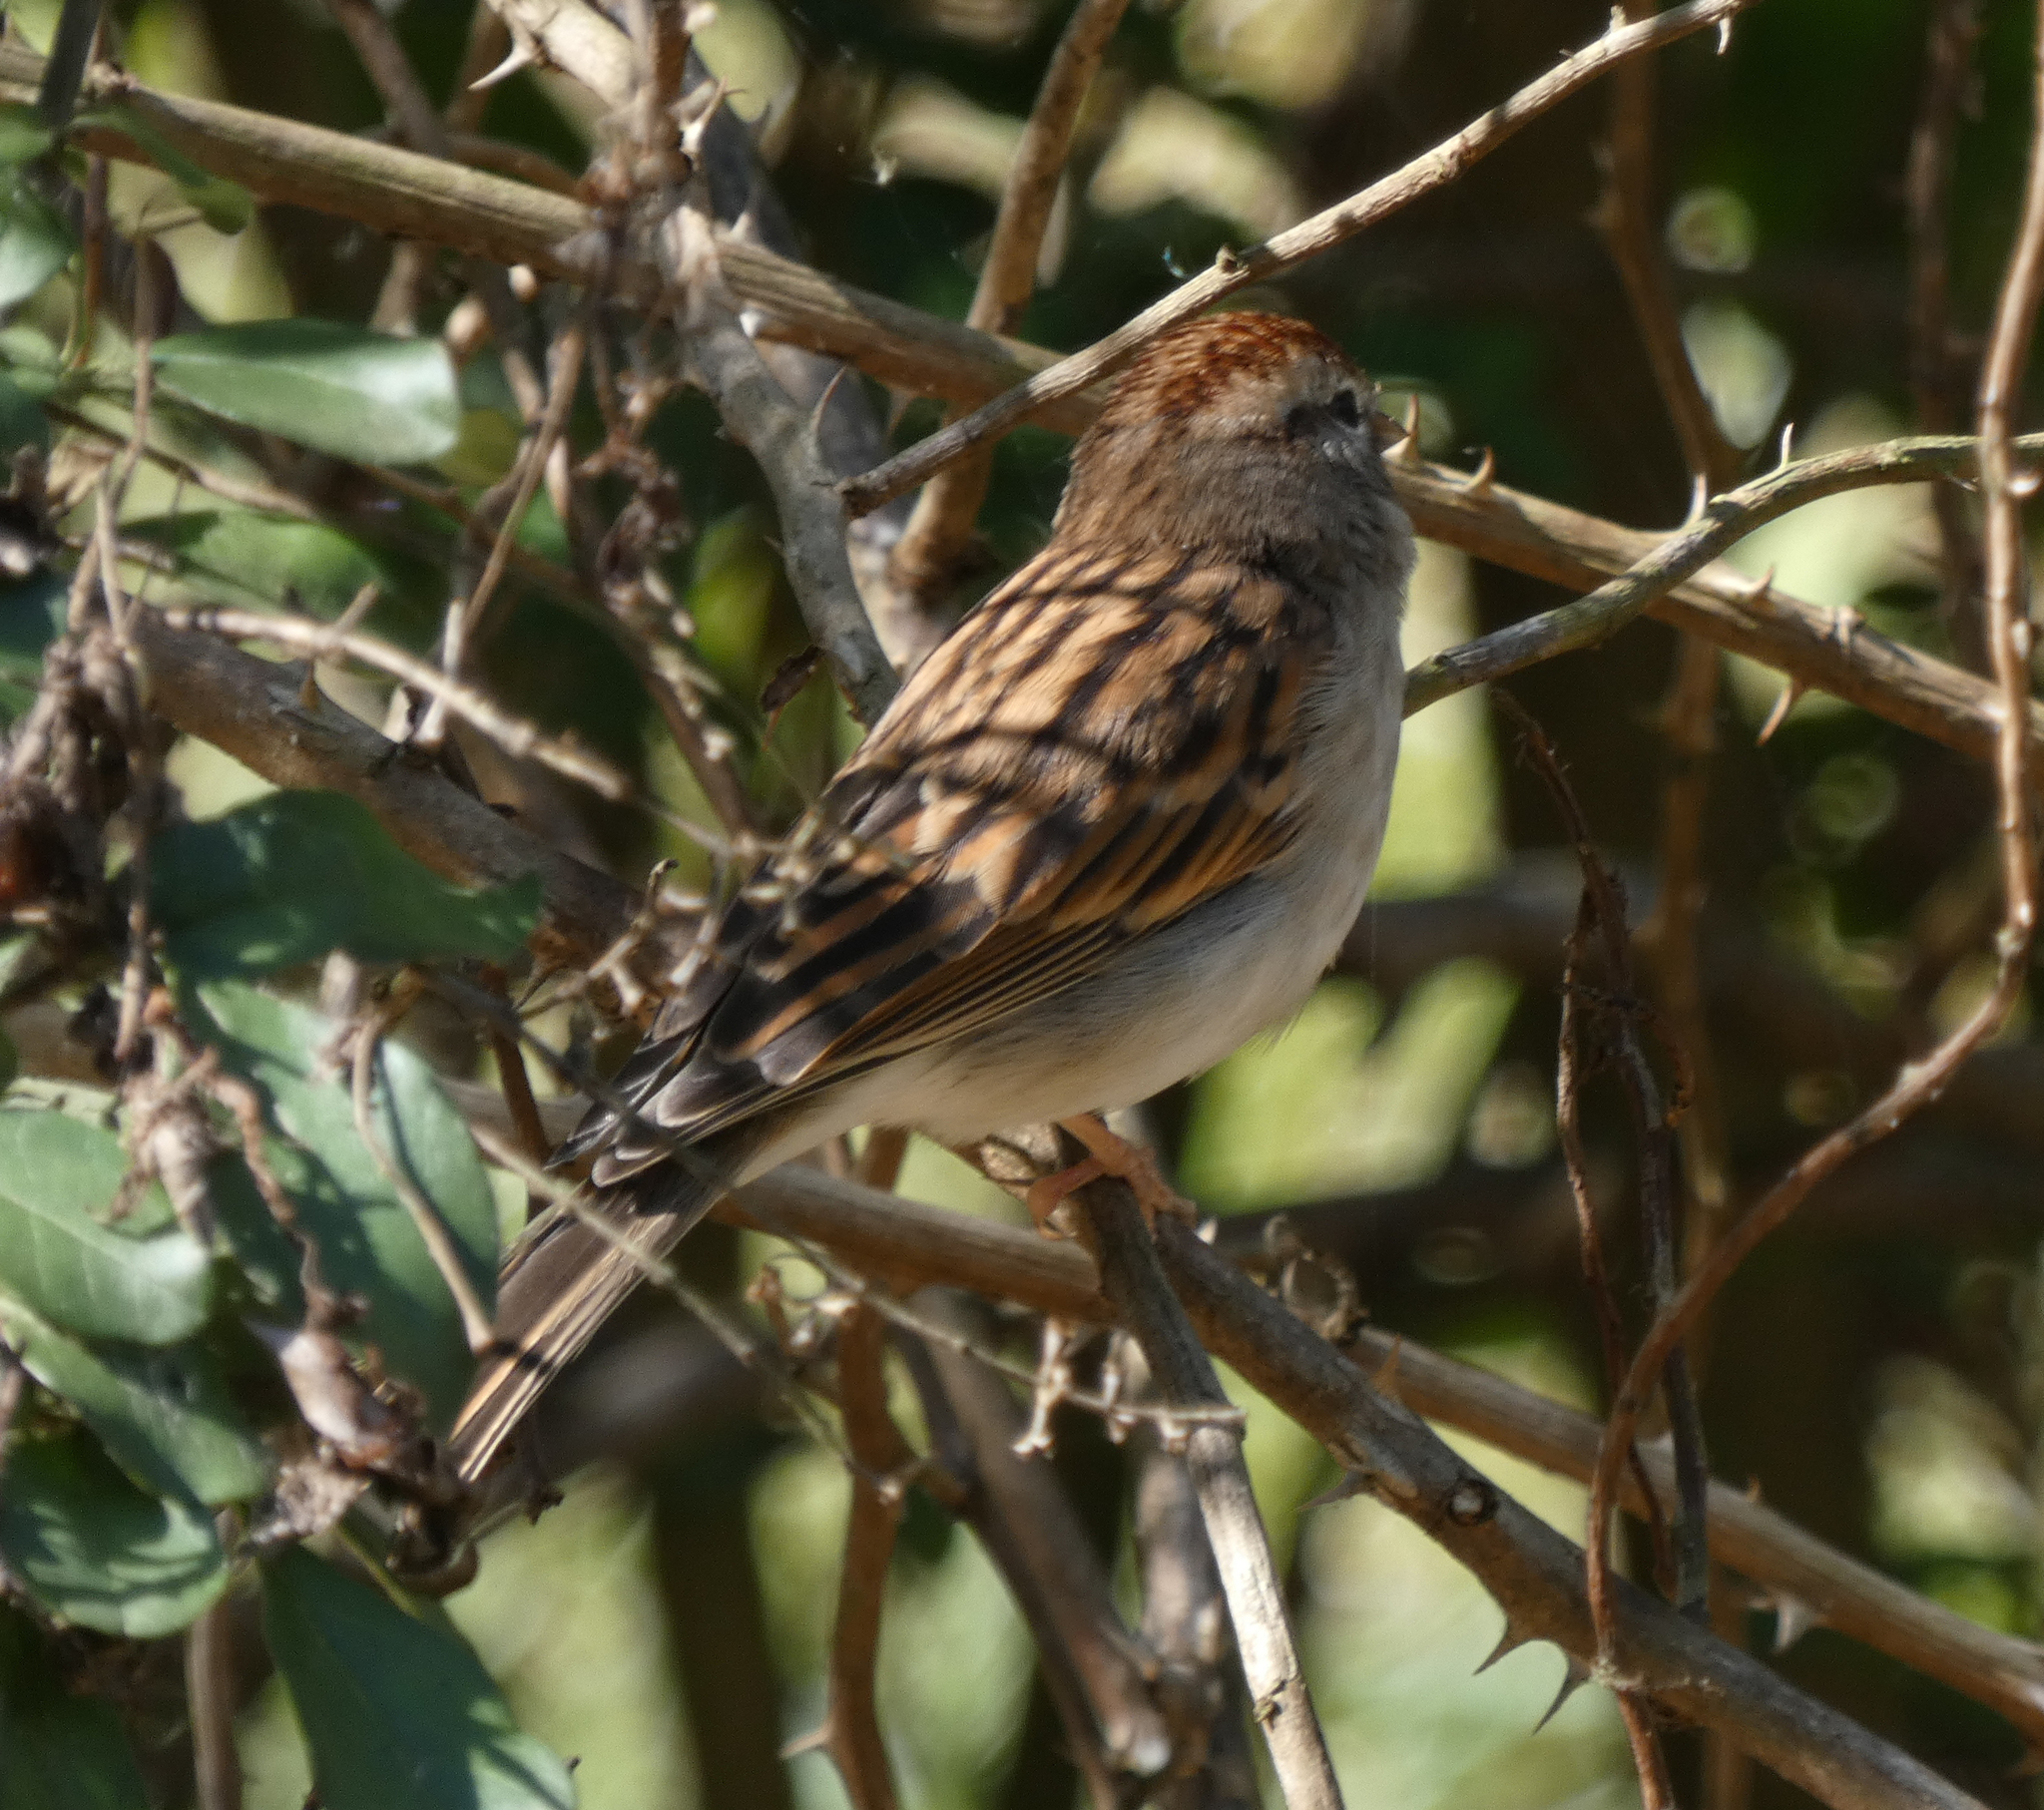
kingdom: Animalia
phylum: Chordata
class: Aves
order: Passeriformes
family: Passerellidae
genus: Spizella
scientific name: Spizella passerina
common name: Chipping sparrow
